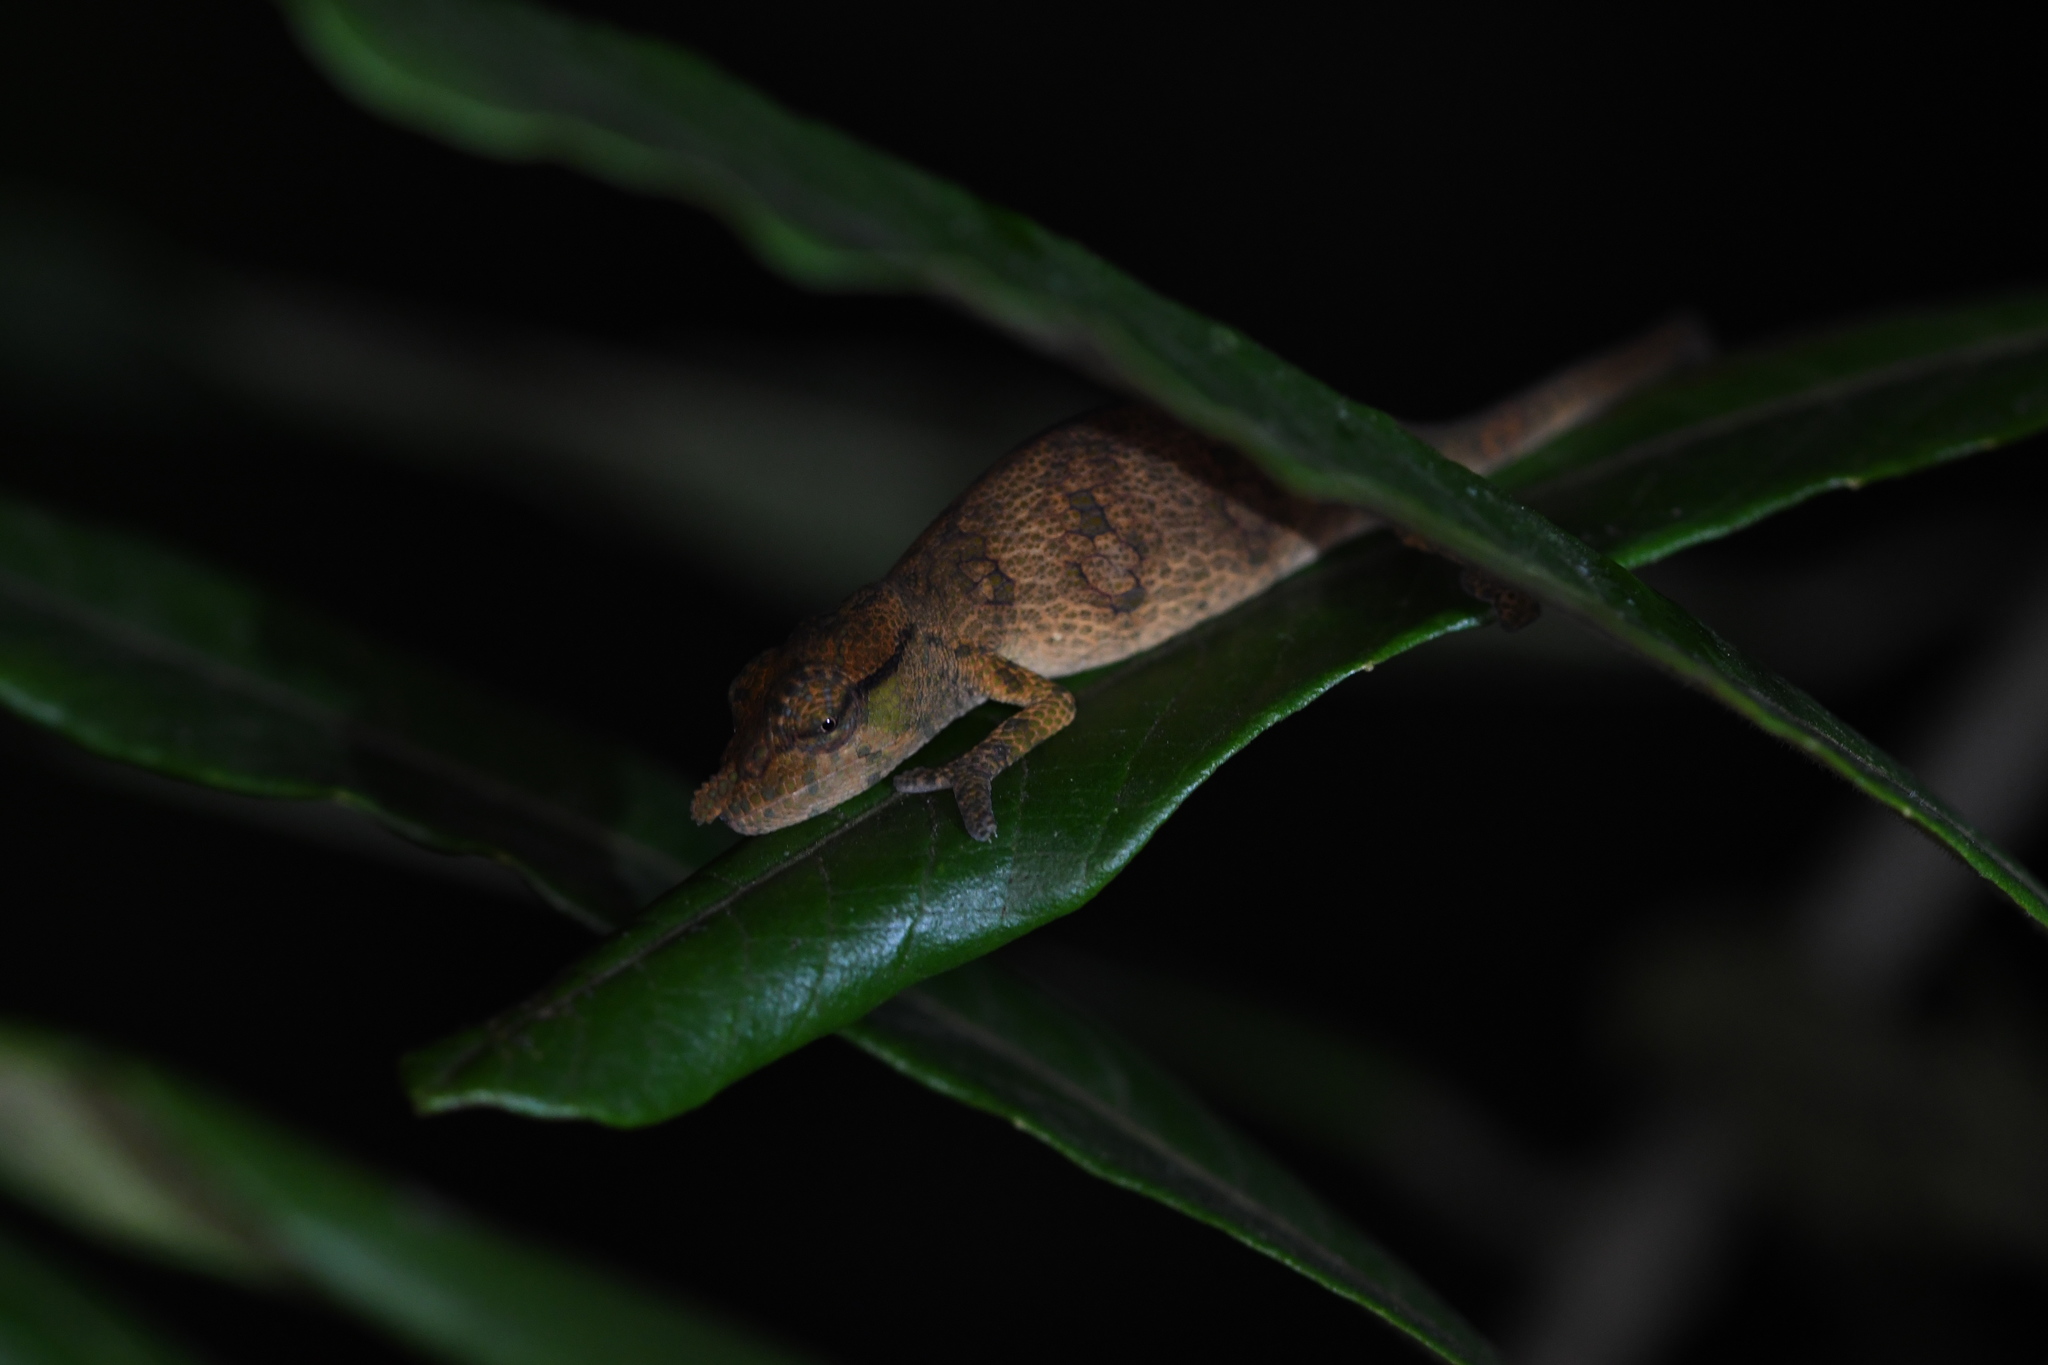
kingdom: Animalia
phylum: Chordata
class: Squamata
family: Chamaeleonidae
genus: Calumma
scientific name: Calumma tjiasmantoi
